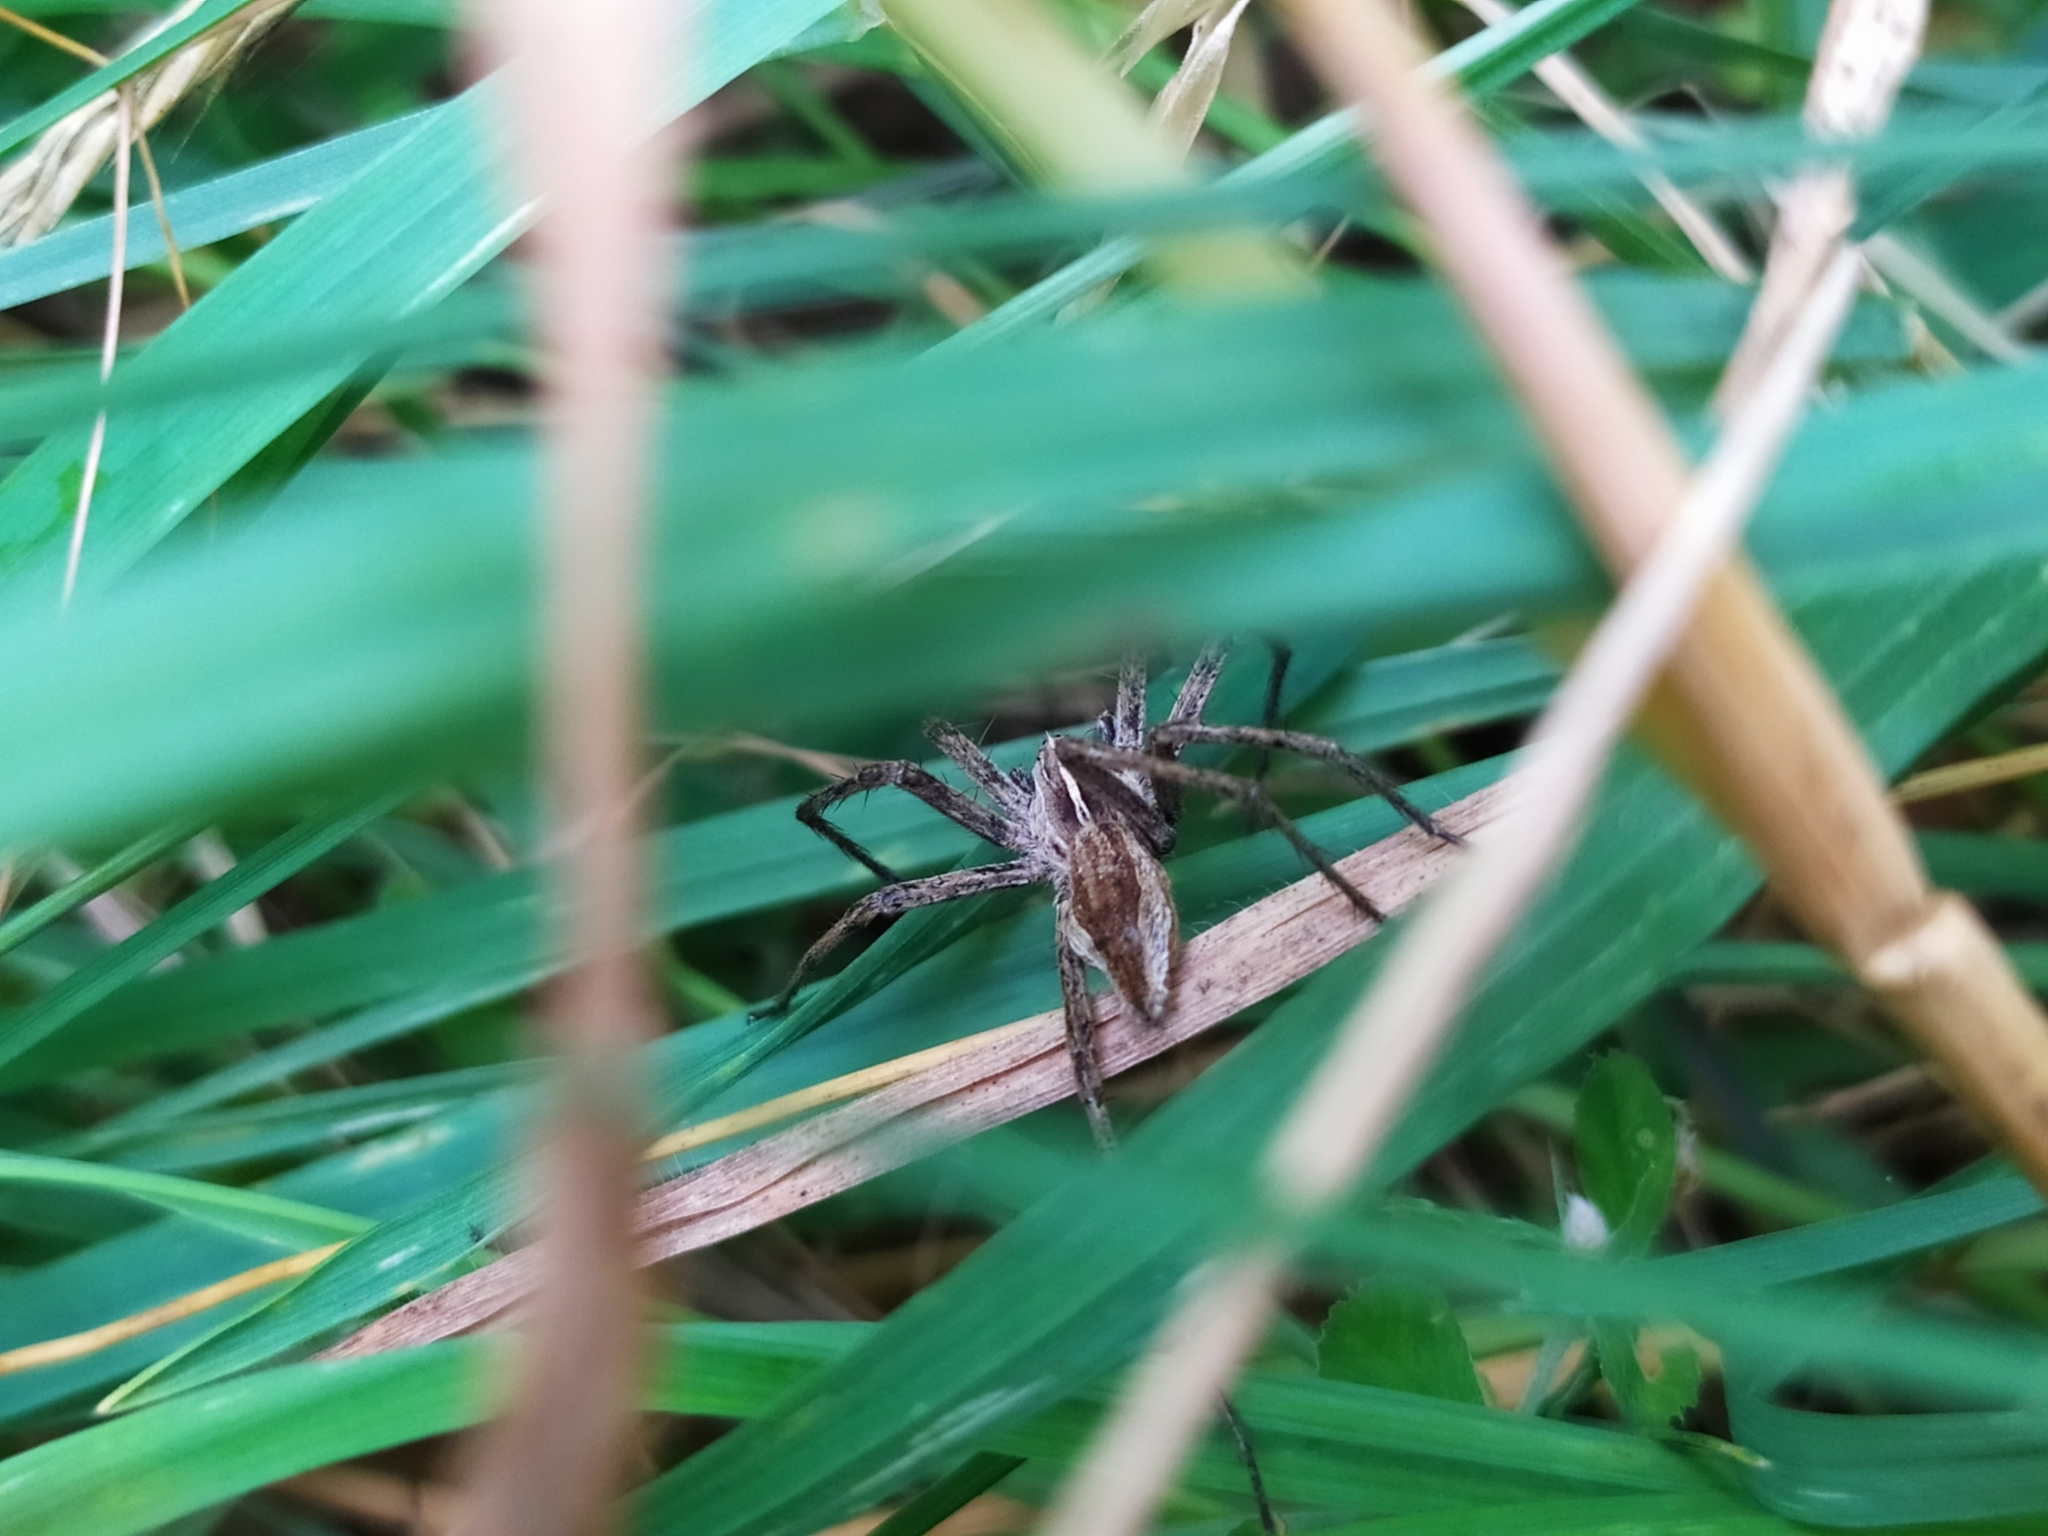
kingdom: Animalia
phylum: Arthropoda
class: Arachnida
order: Araneae
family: Pisauridae
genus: Pisaura
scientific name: Pisaura mirabilis
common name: Tent spider
